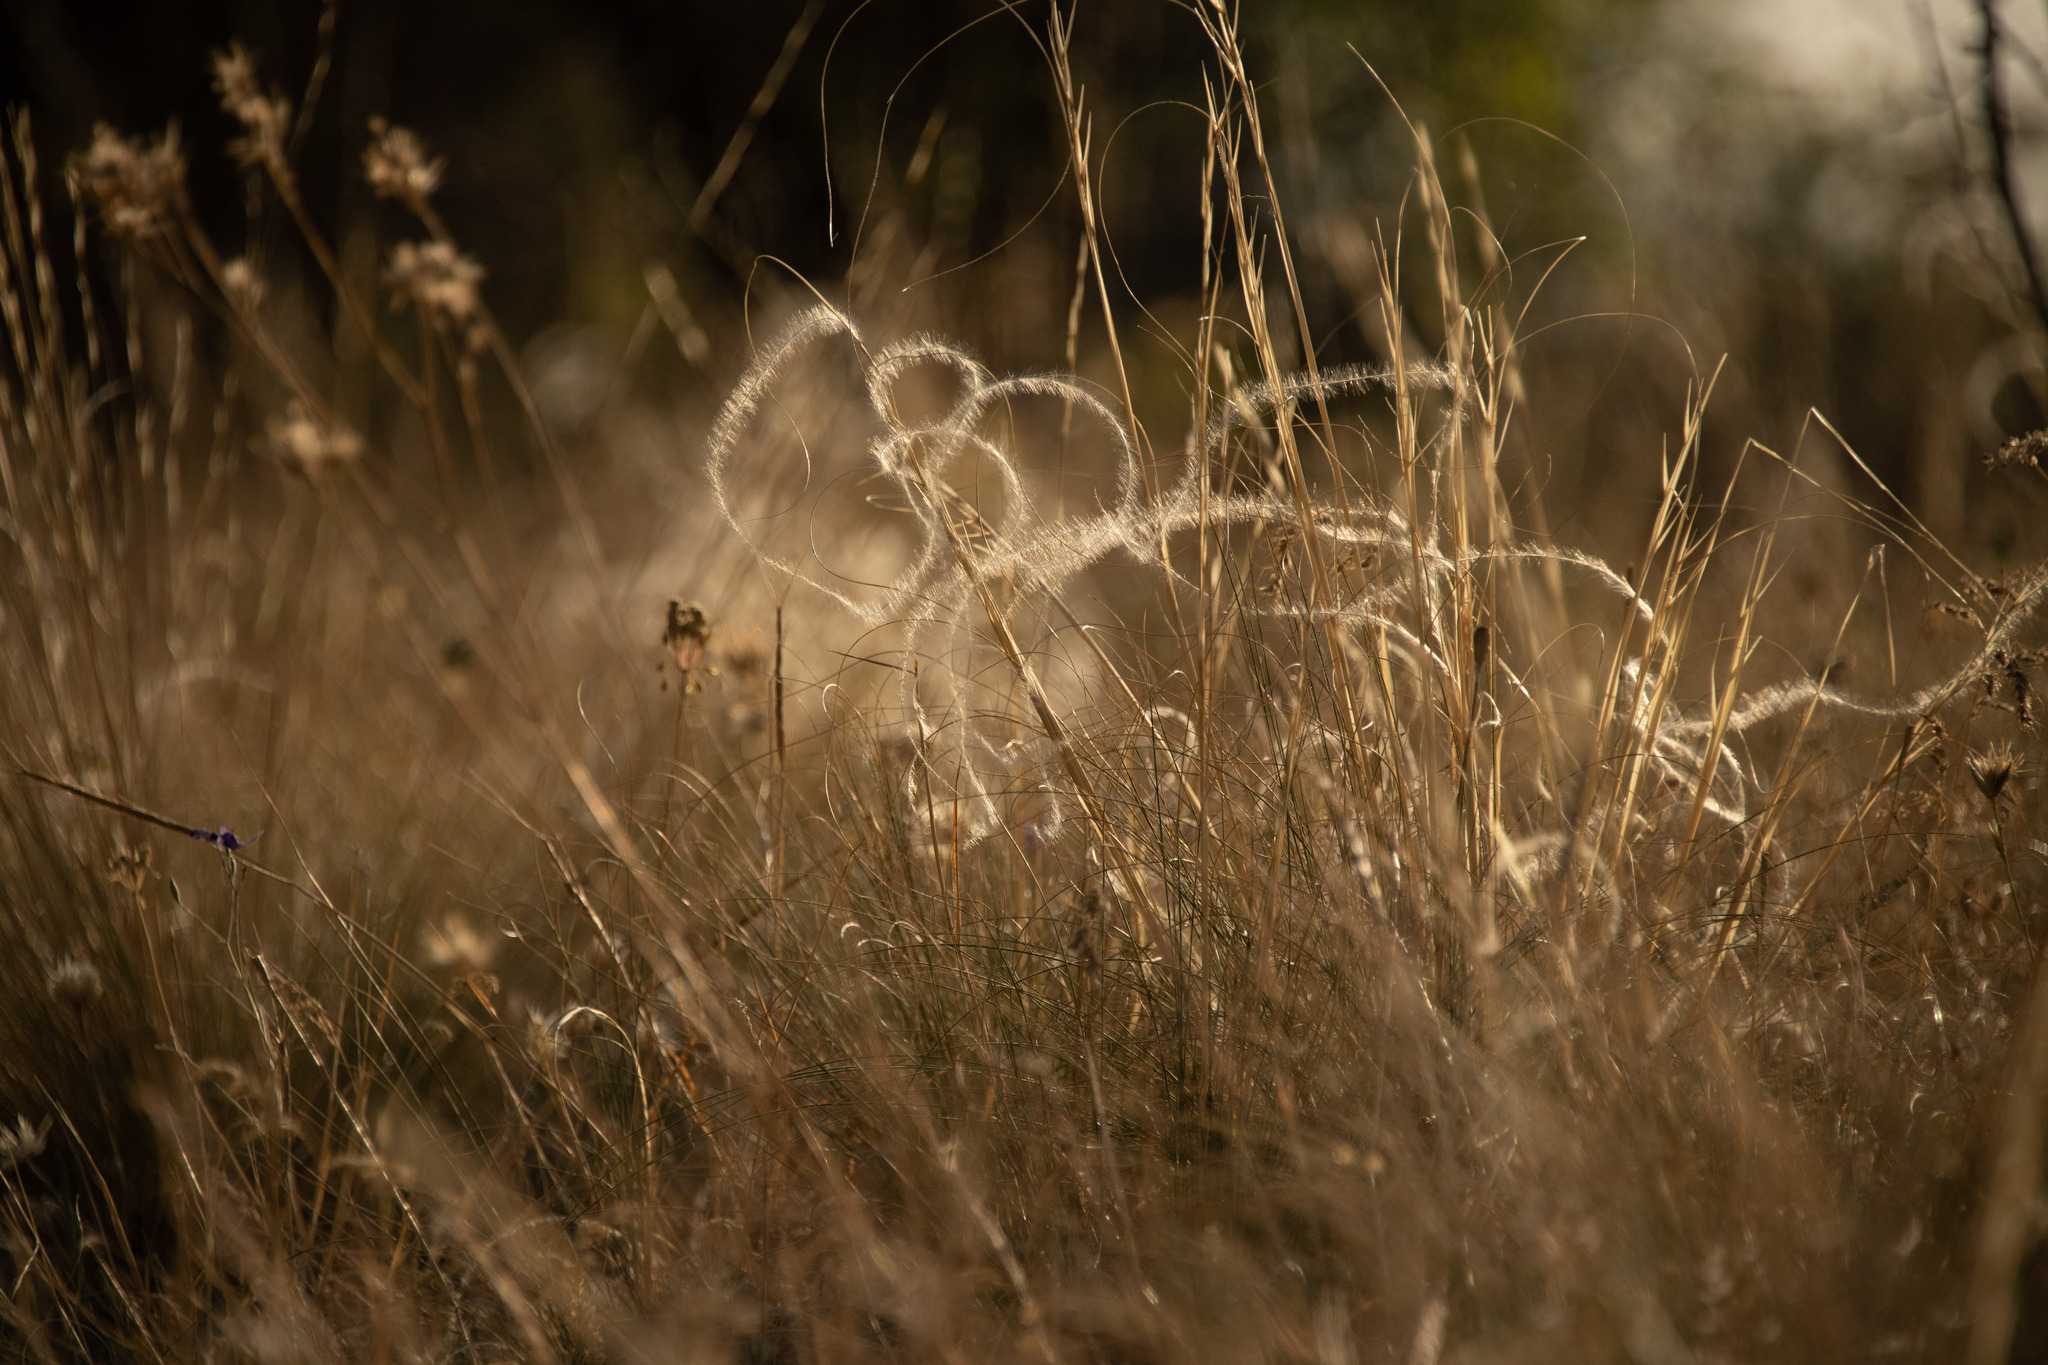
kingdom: Plantae
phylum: Tracheophyta
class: Liliopsida
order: Poales
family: Poaceae
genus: Stipa
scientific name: Stipa pennata
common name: European feather grass
